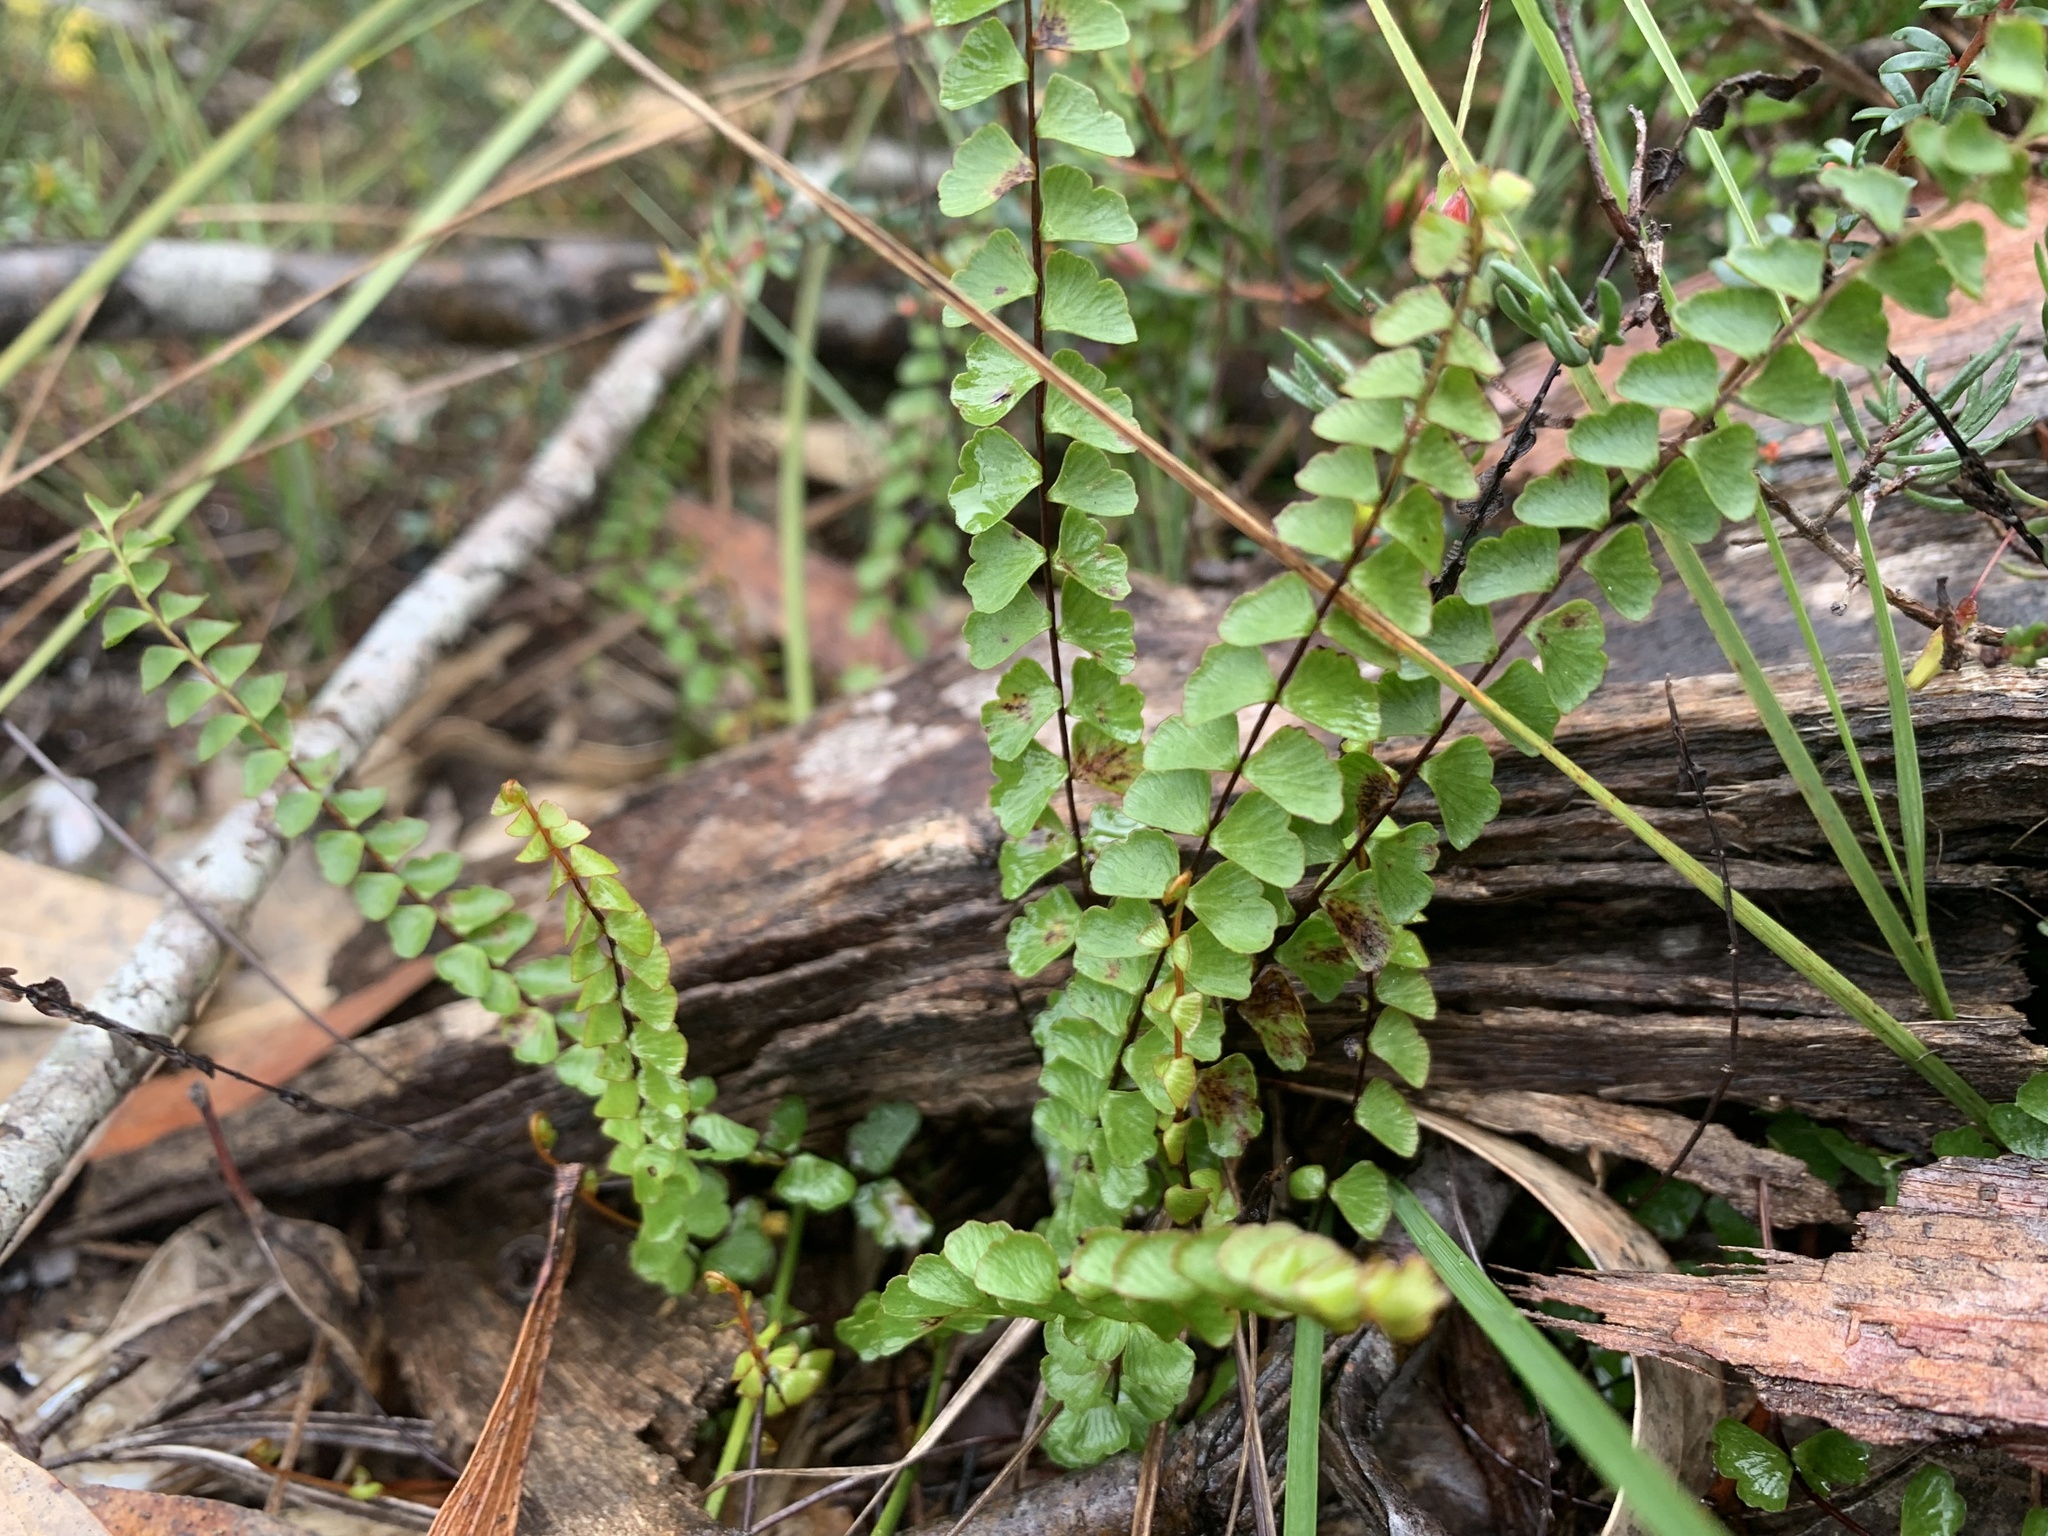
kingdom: Plantae
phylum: Tracheophyta
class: Polypodiopsida
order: Polypodiales
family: Lindsaeaceae
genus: Lindsaea
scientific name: Lindsaea linearis
